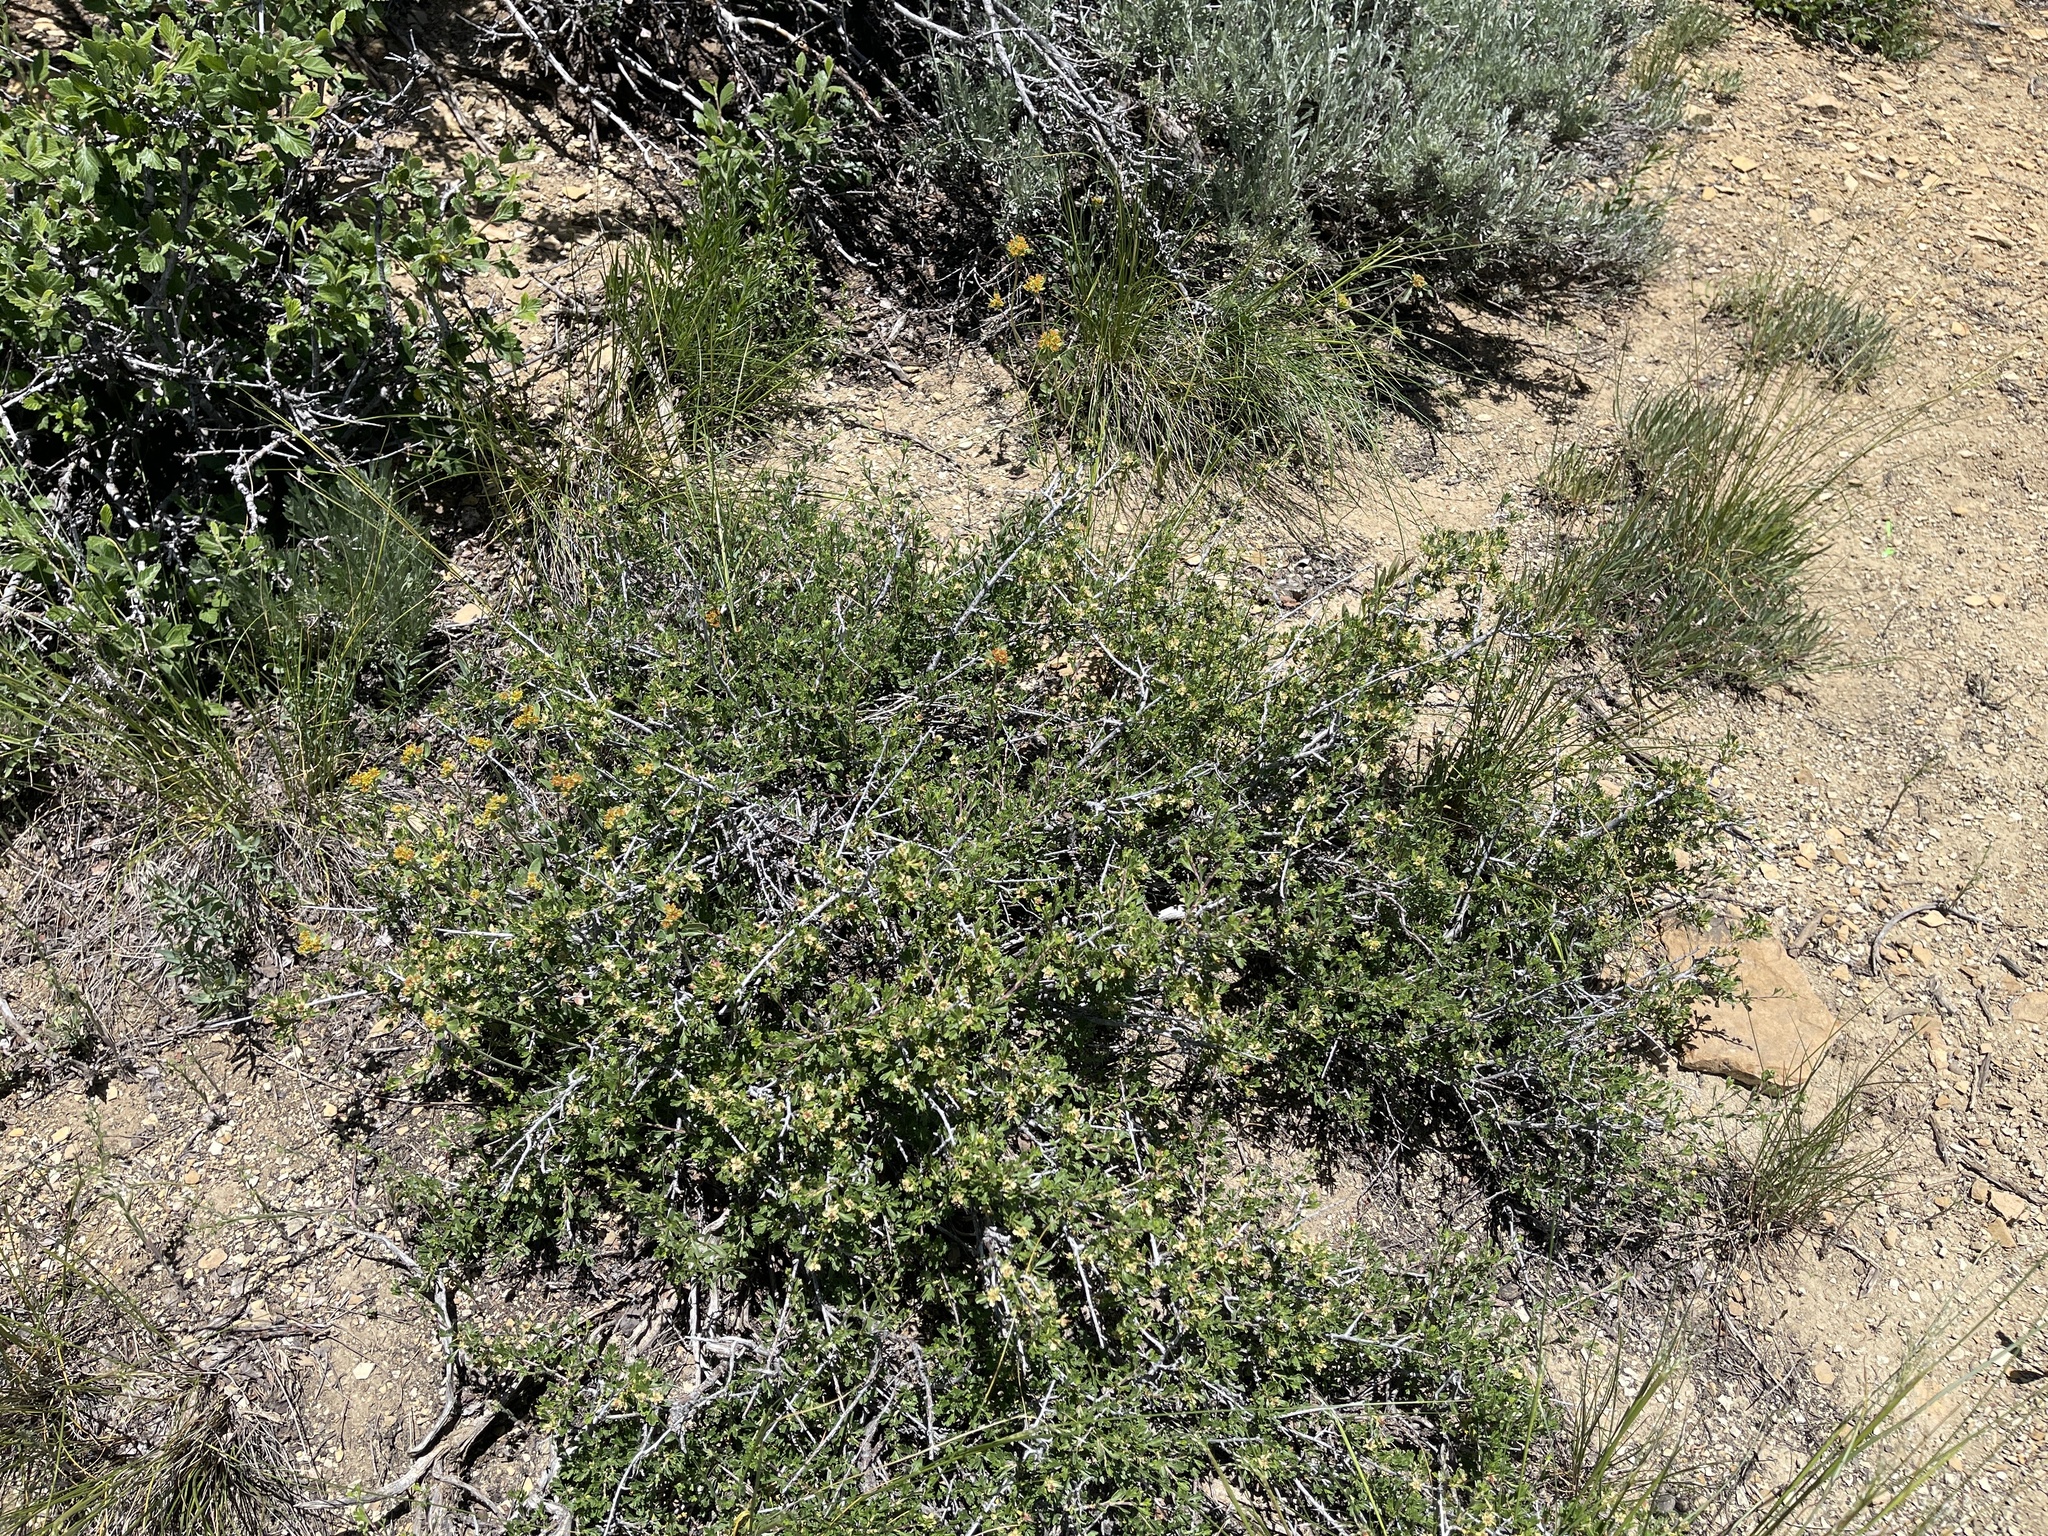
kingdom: Plantae
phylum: Tracheophyta
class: Magnoliopsida
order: Rosales
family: Rosaceae
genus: Purshia
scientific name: Purshia tridentata
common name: Antelope bitterbrush
